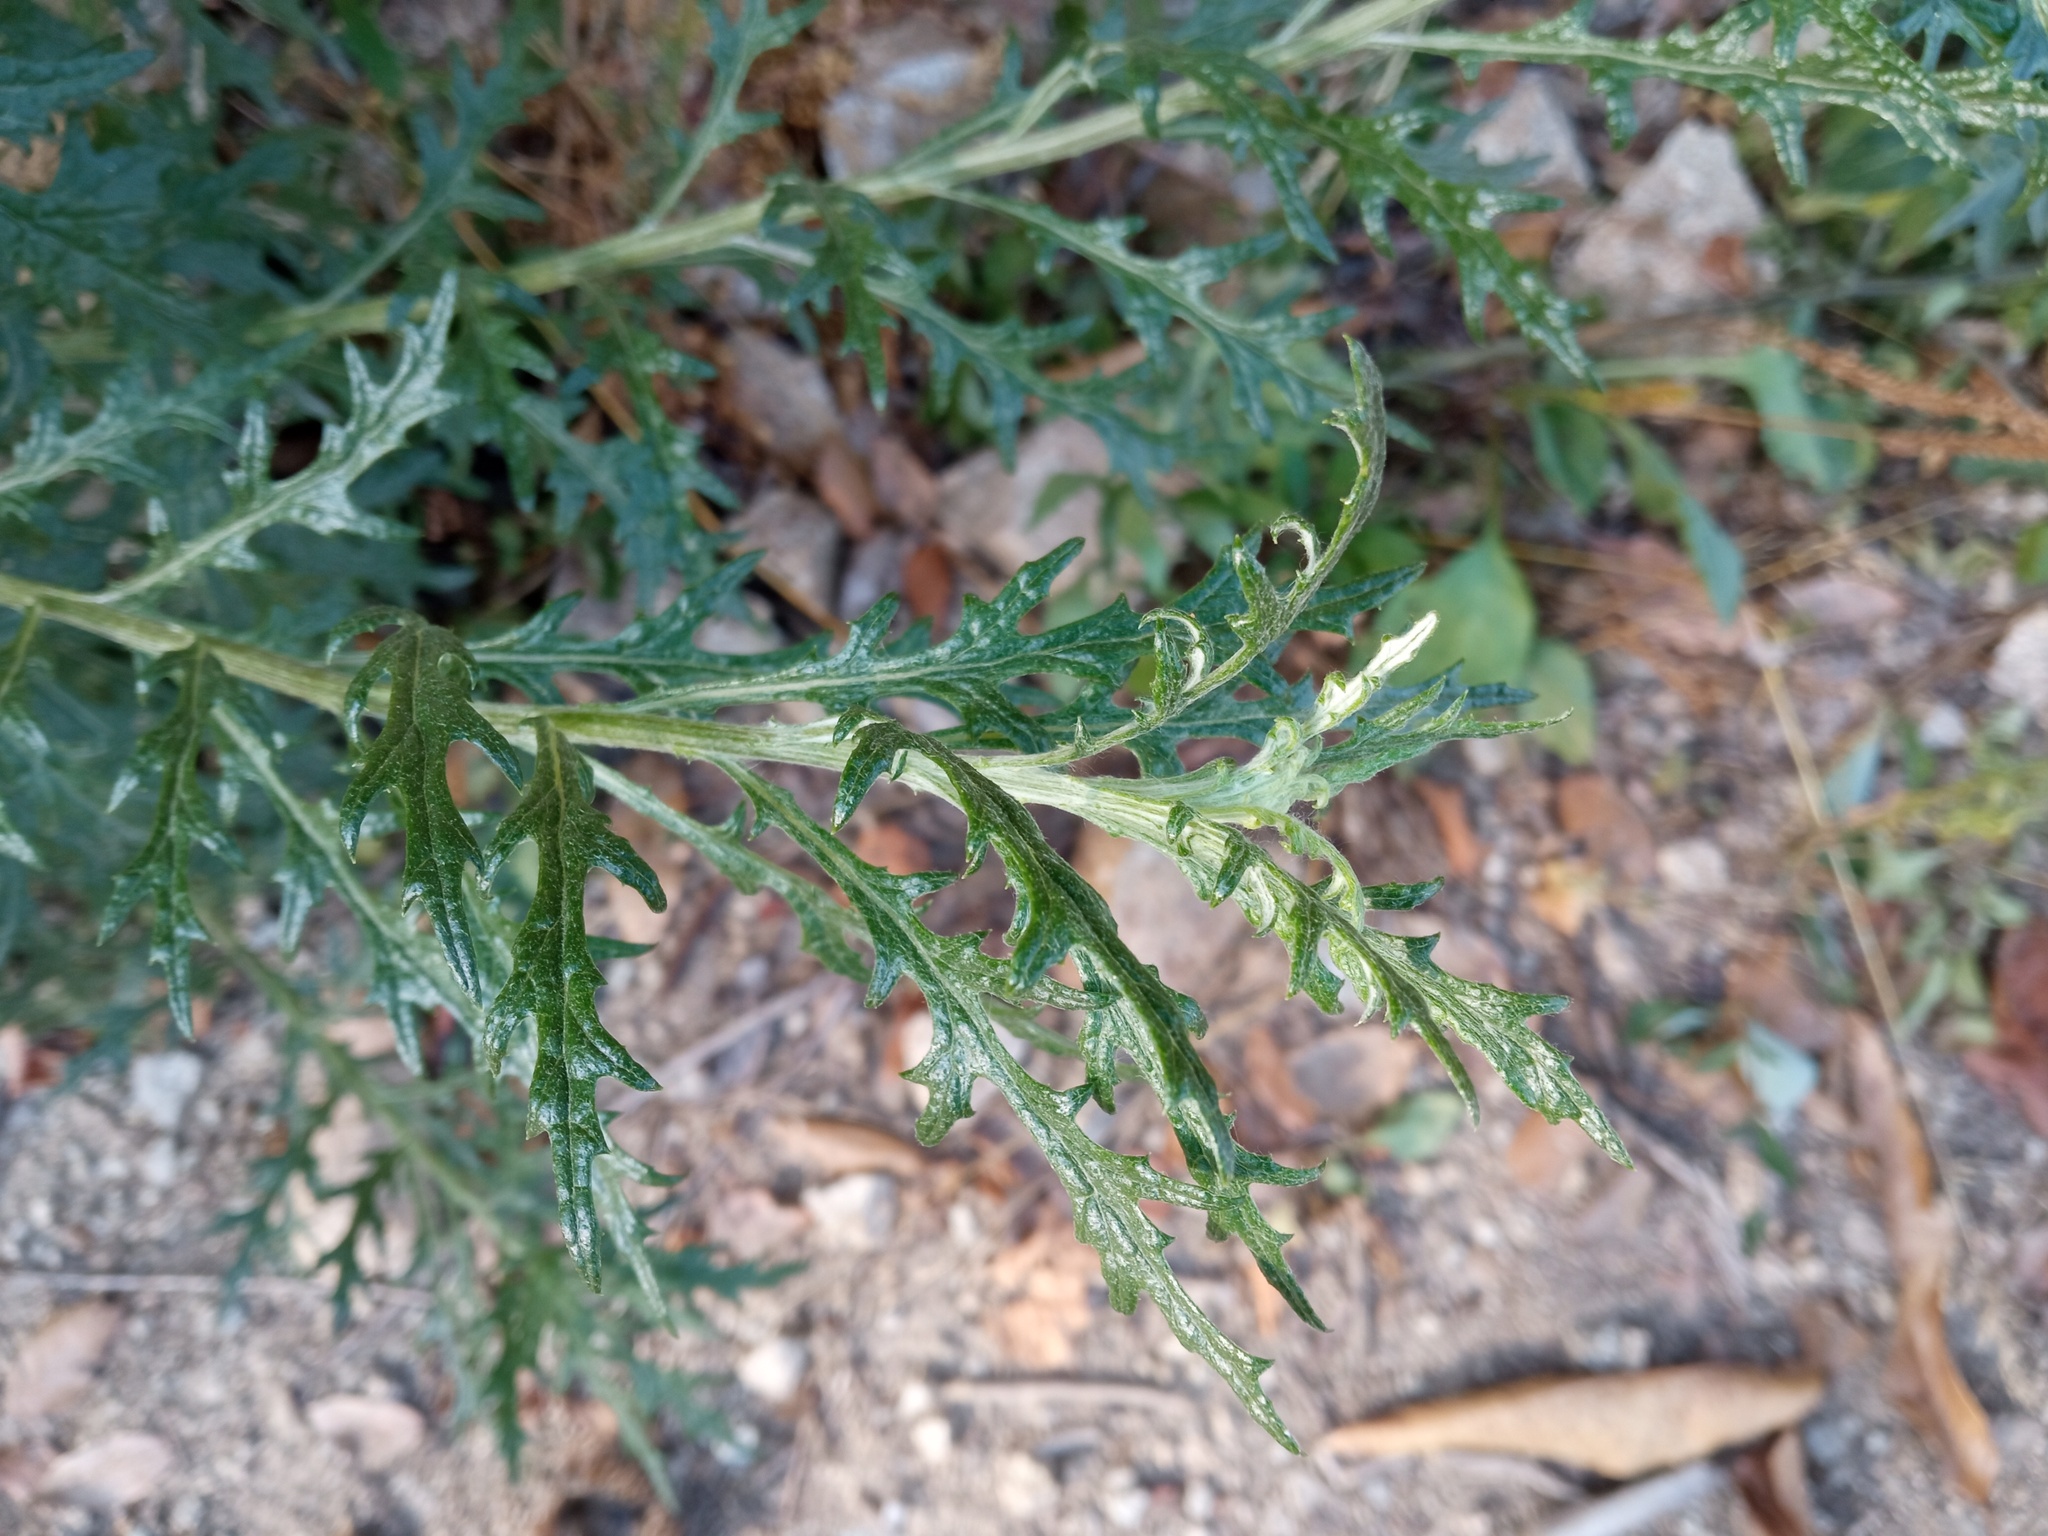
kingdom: Plantae
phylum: Tracheophyta
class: Magnoliopsida
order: Asterales
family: Asteraceae
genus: Senecio
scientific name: Senecio pterophorus
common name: Shoddy ragwort
